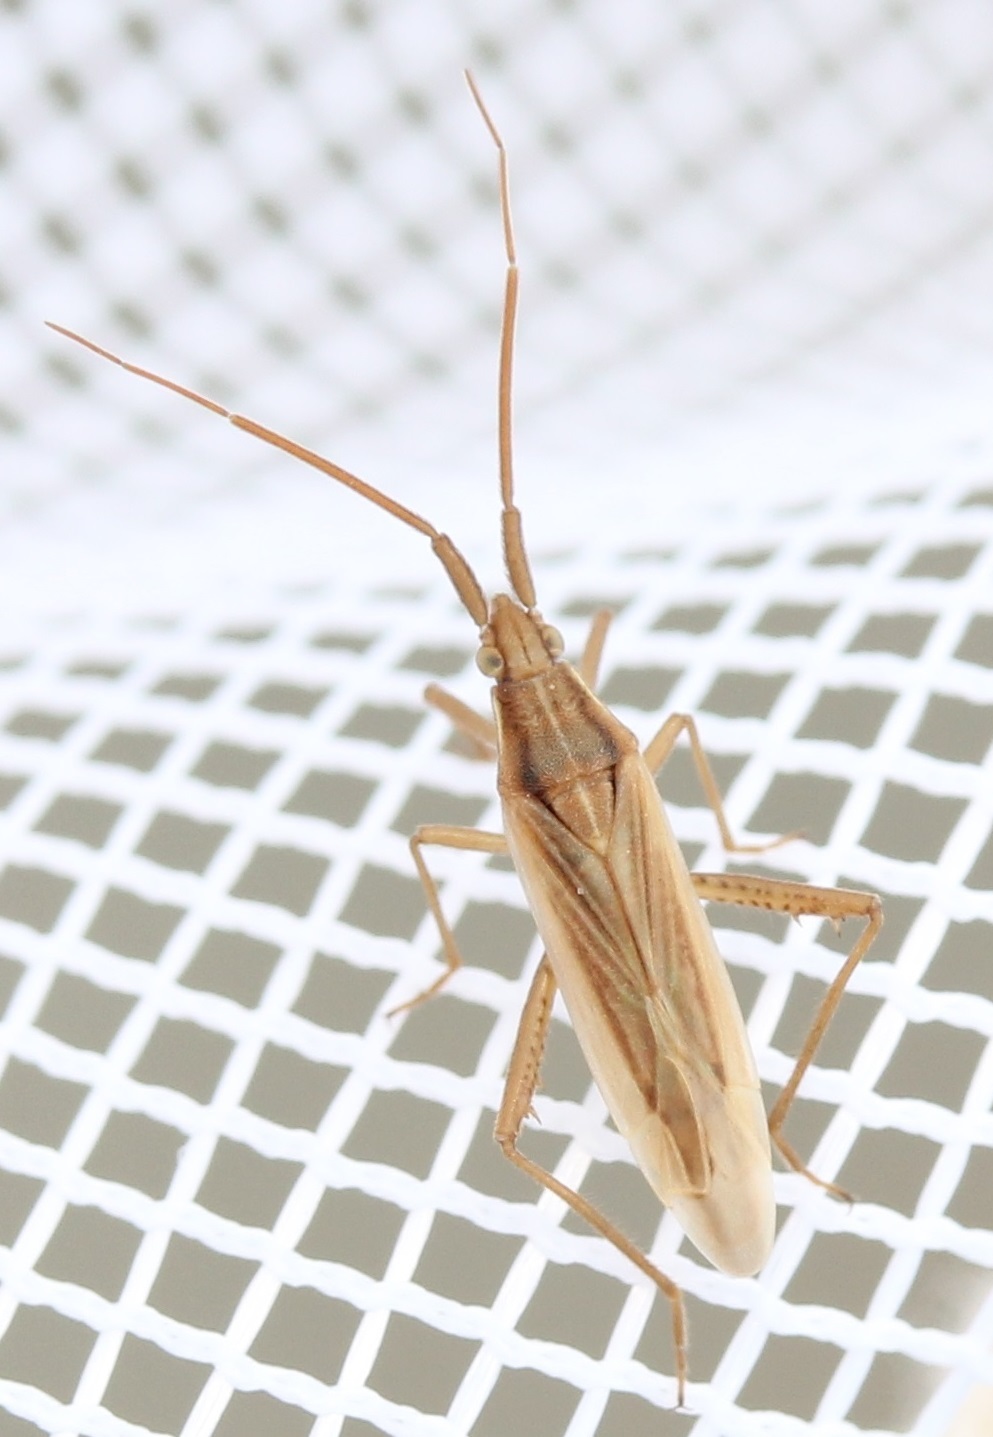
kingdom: Animalia
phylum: Arthropoda
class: Insecta
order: Hemiptera
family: Miridae
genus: Stenodema
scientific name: Stenodema trispinosa
